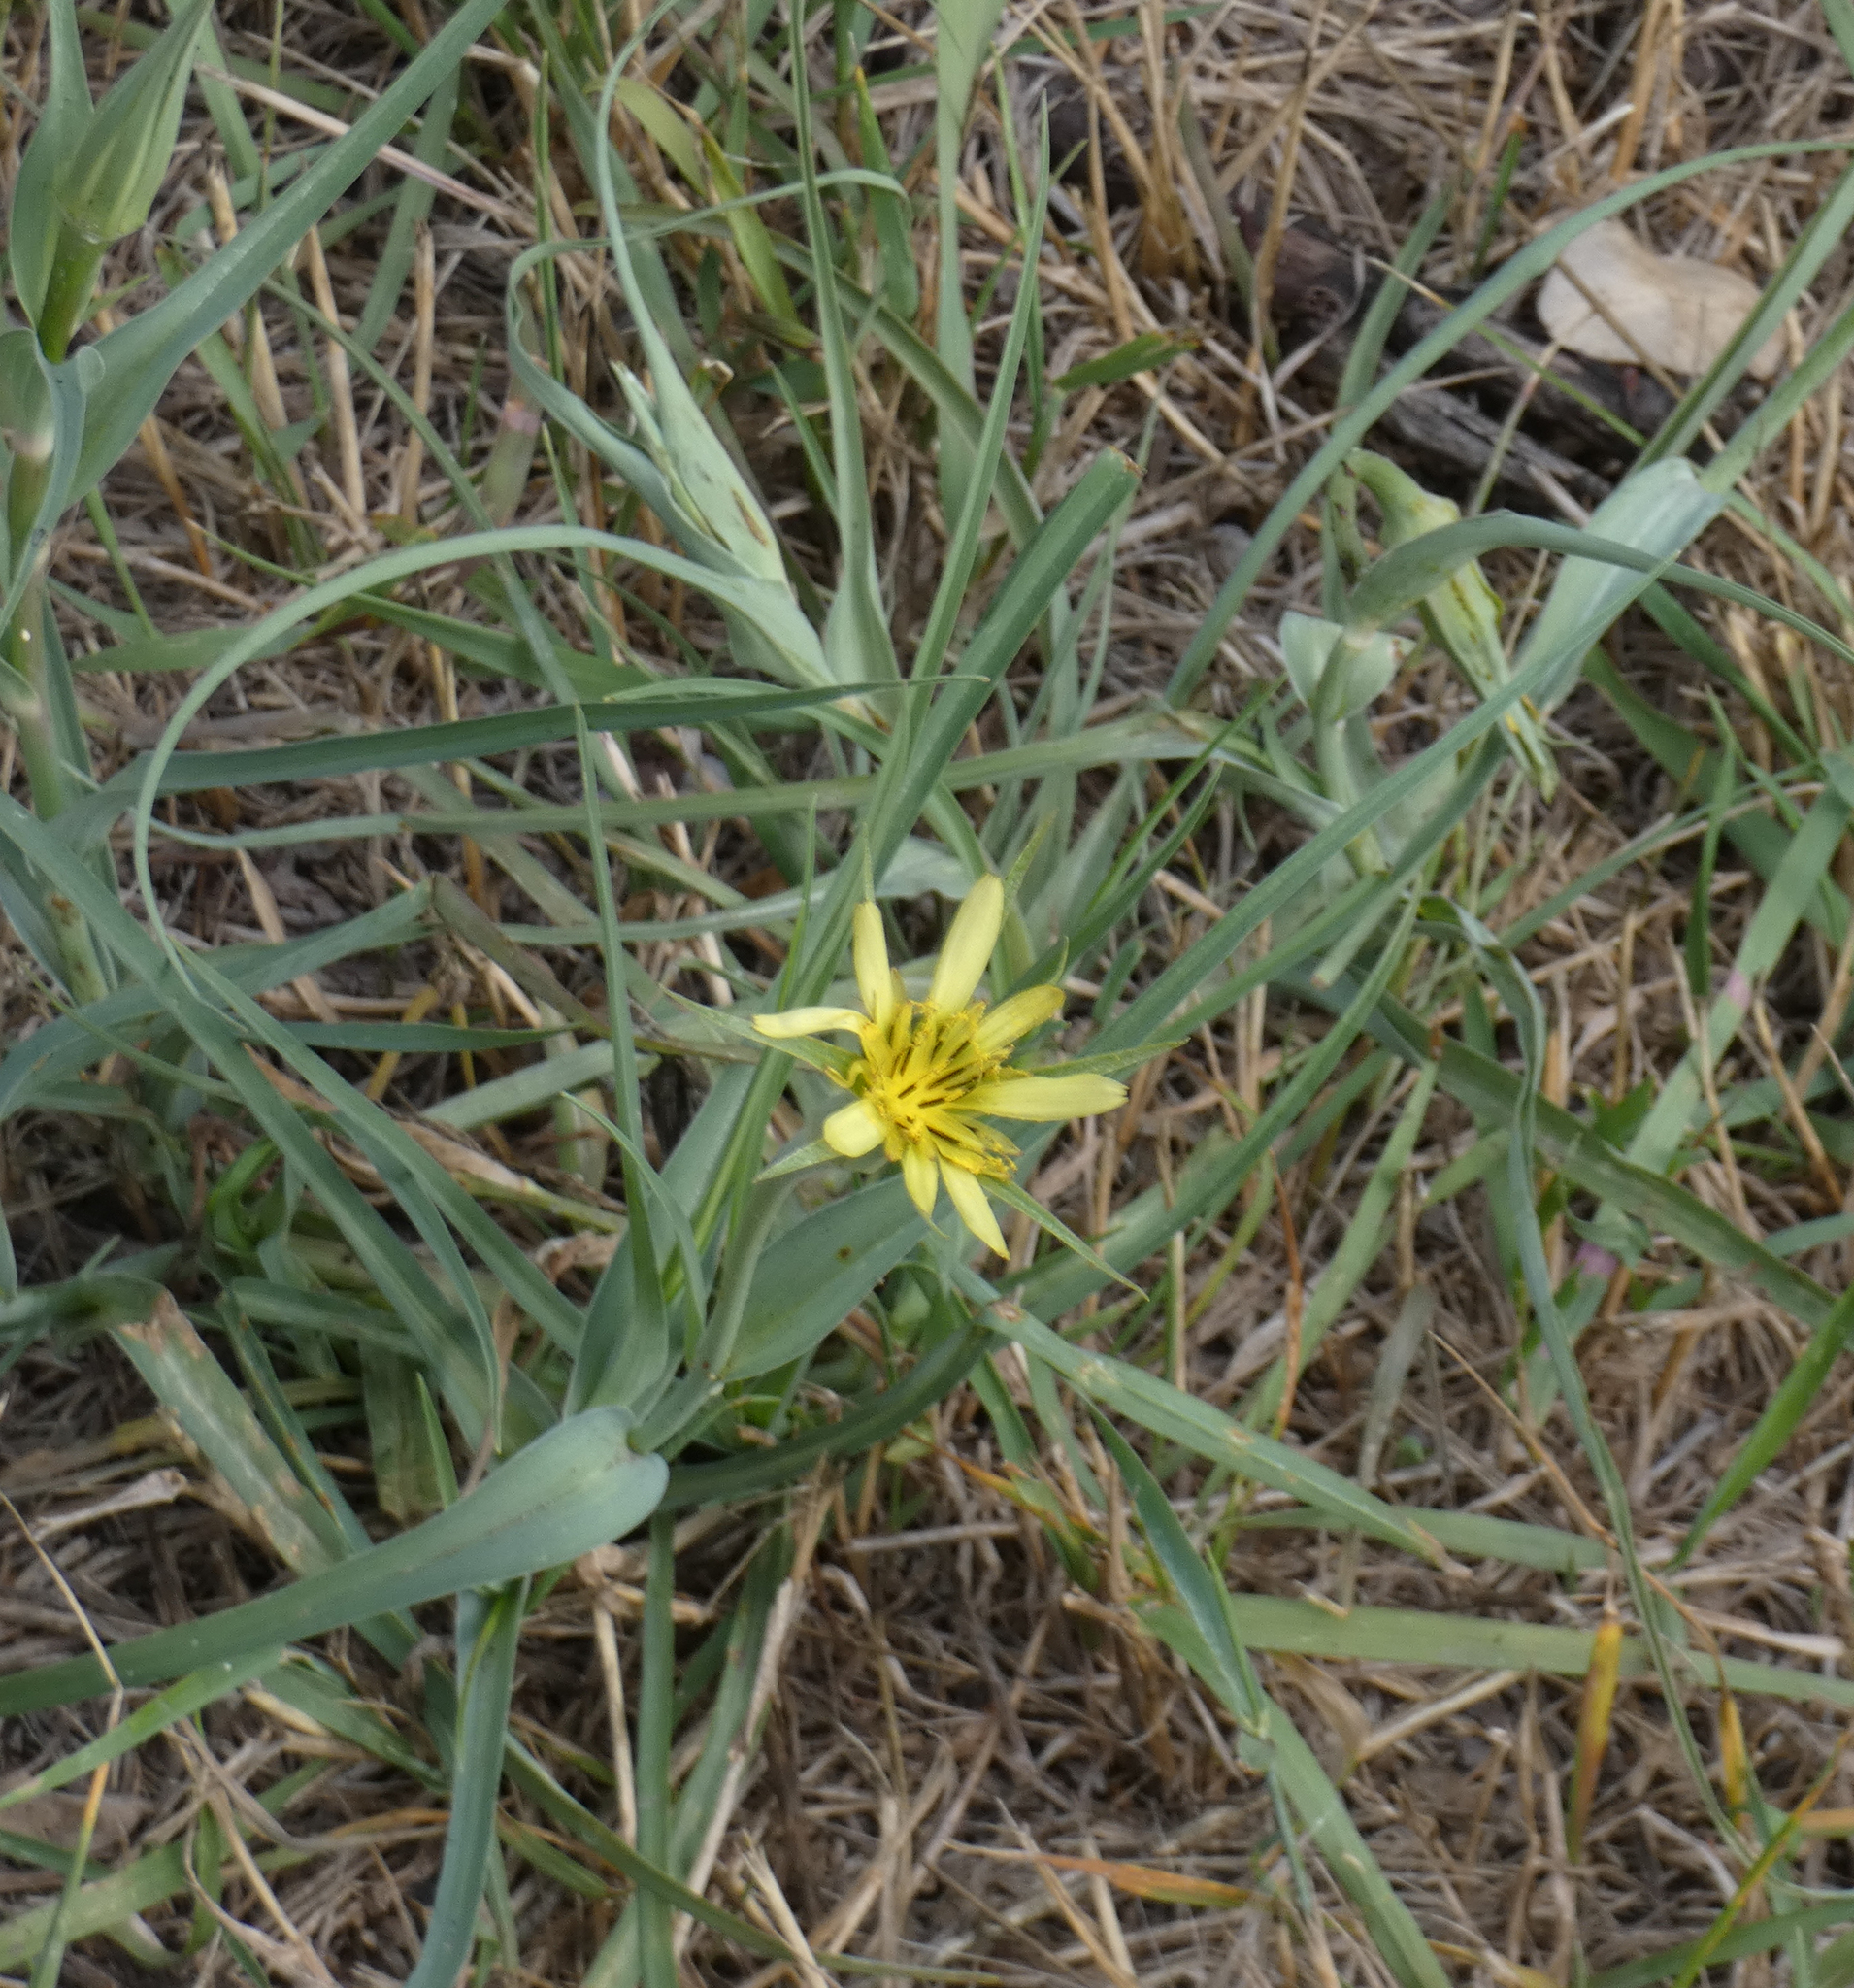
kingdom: Plantae
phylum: Tracheophyta
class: Magnoliopsida
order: Asterales
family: Asteraceae
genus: Tragopogon
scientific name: Tragopogon dubius
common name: Yellow salsify
